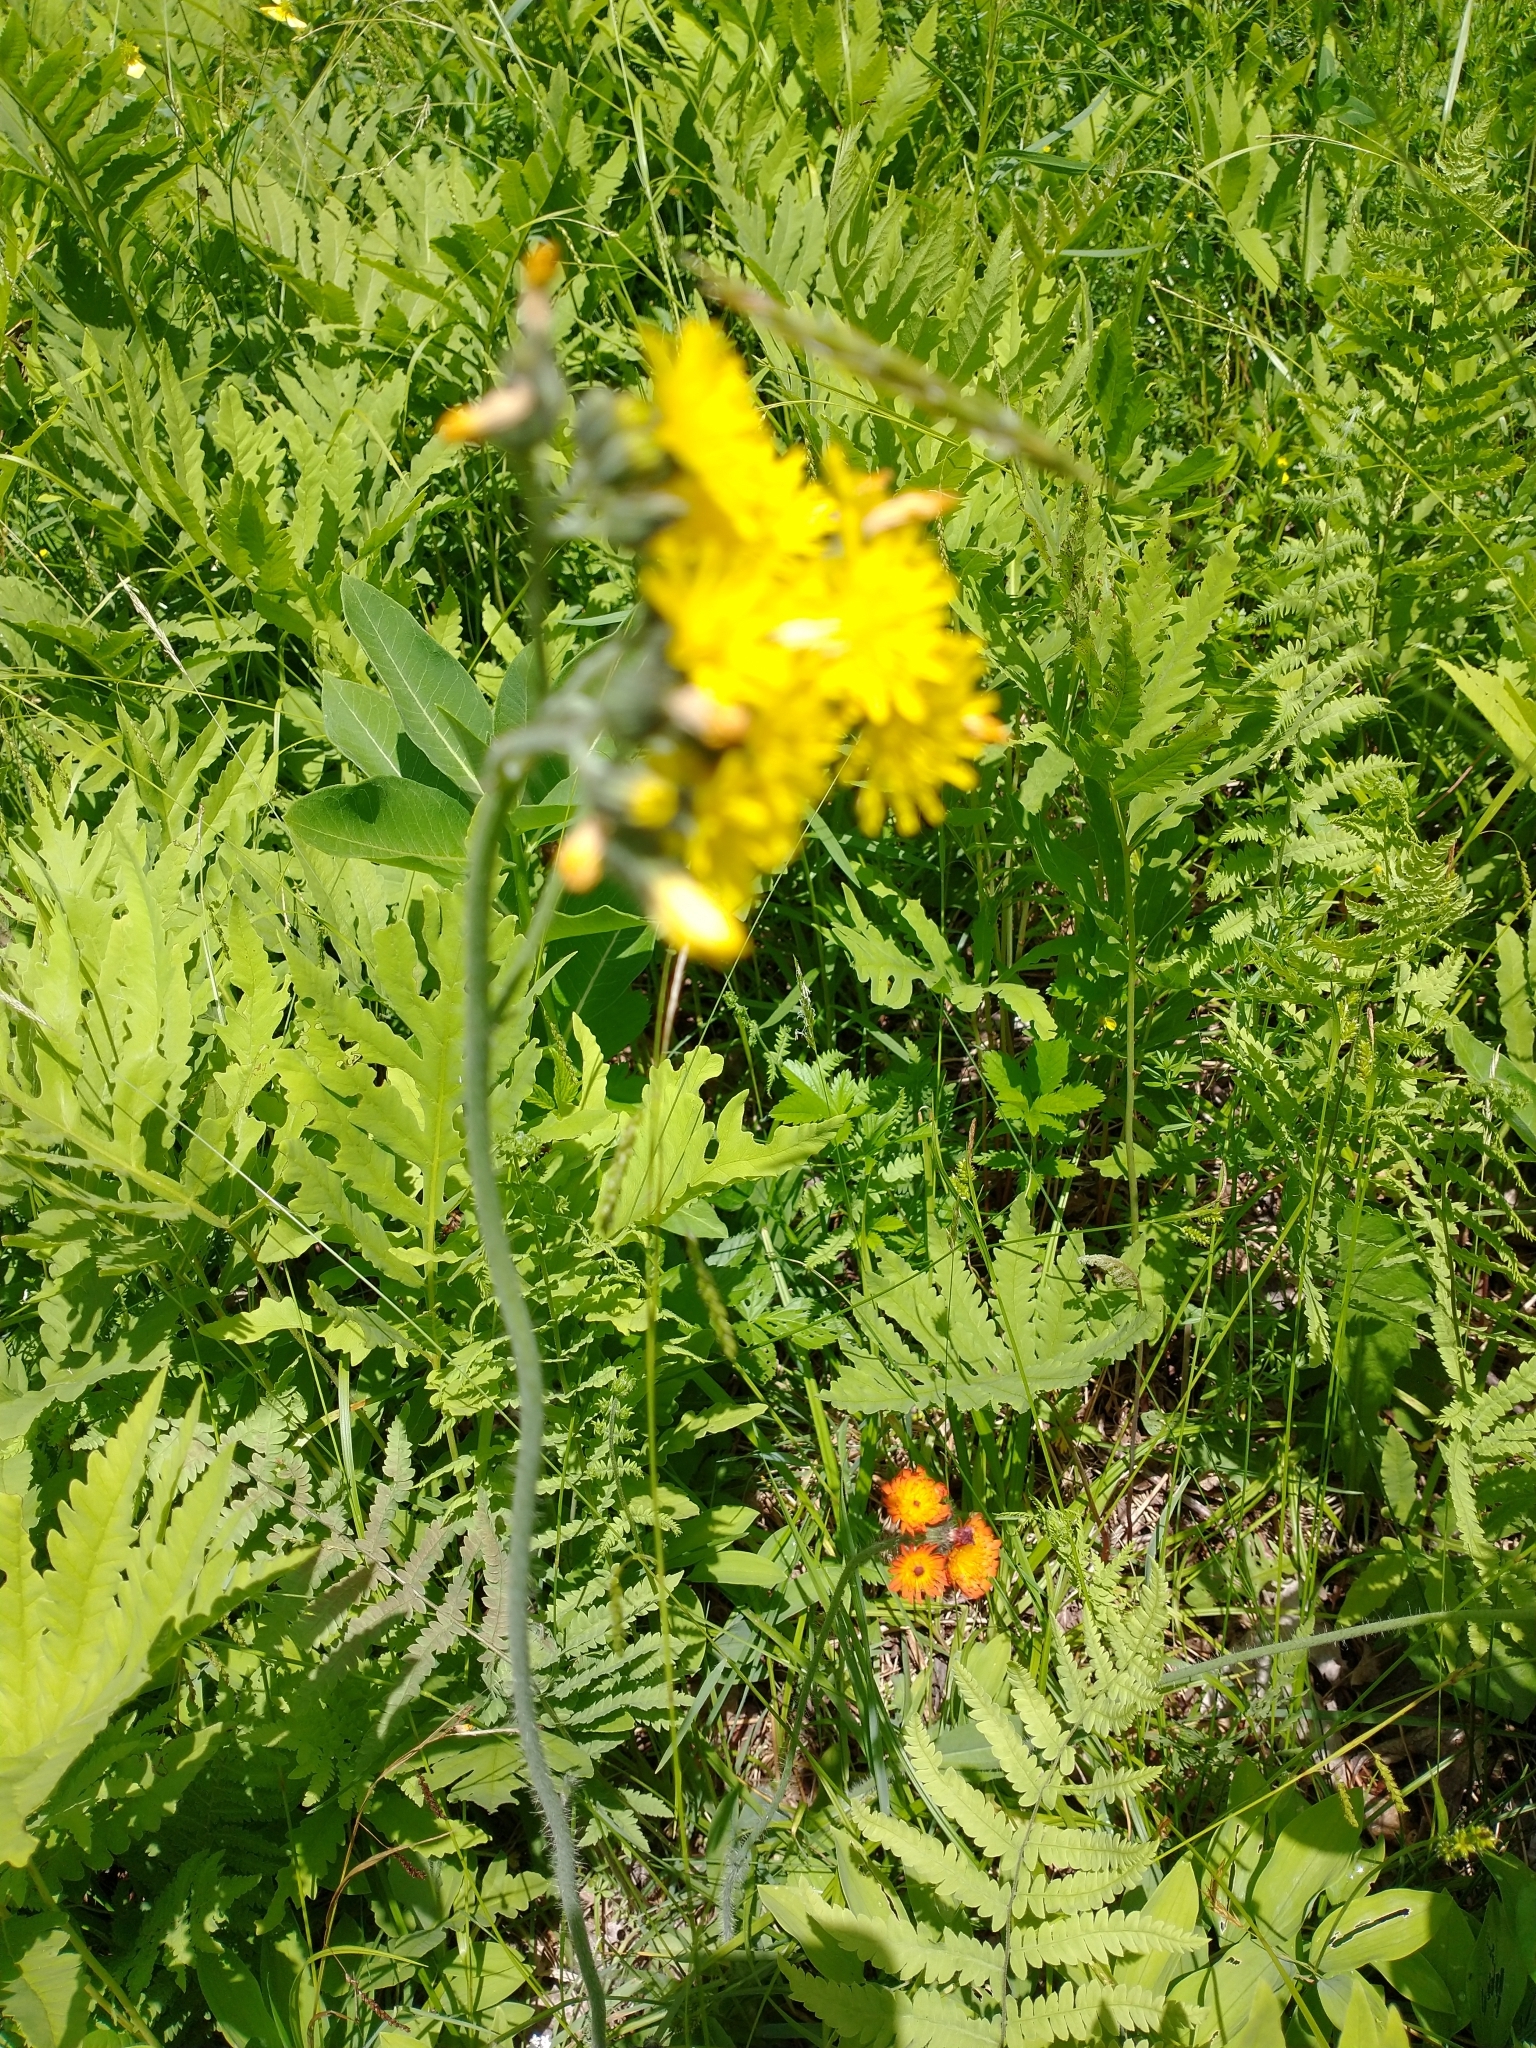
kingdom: Plantae
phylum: Tracheophyta
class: Magnoliopsida
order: Asterales
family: Asteraceae
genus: Pilosella
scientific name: Pilosella caespitosa
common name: Yellow fox-and-cubs
